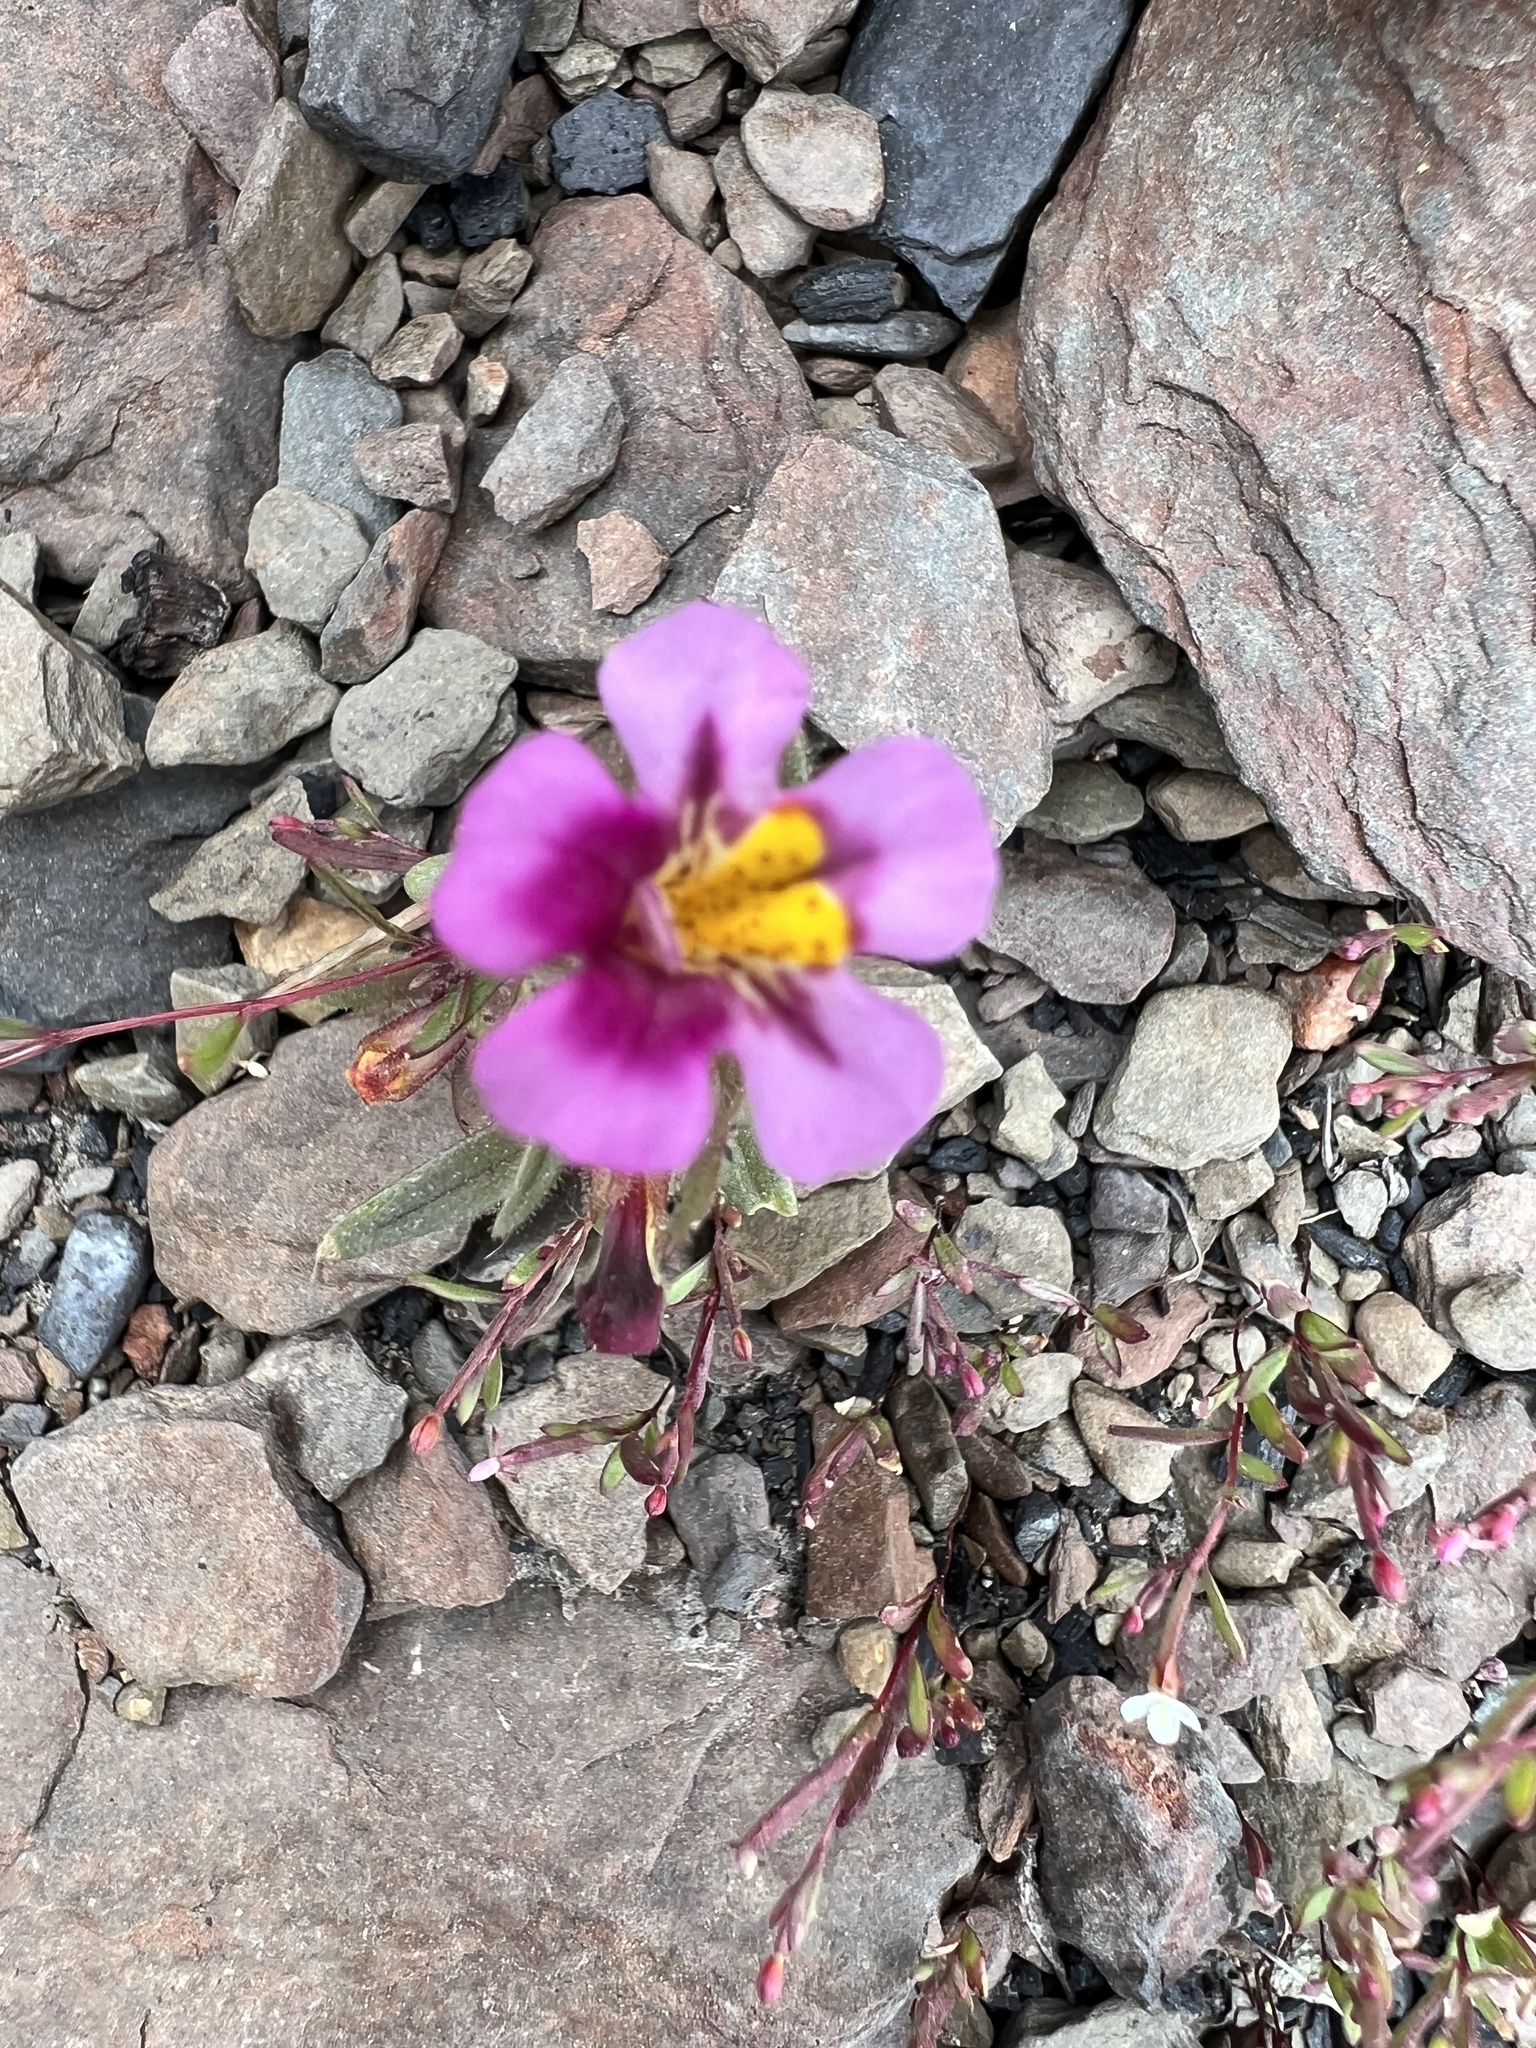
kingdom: Plantae
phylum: Tracheophyta
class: Magnoliopsida
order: Lamiales
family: Phrymaceae
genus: Diplacus
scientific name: Diplacus mephiticus
